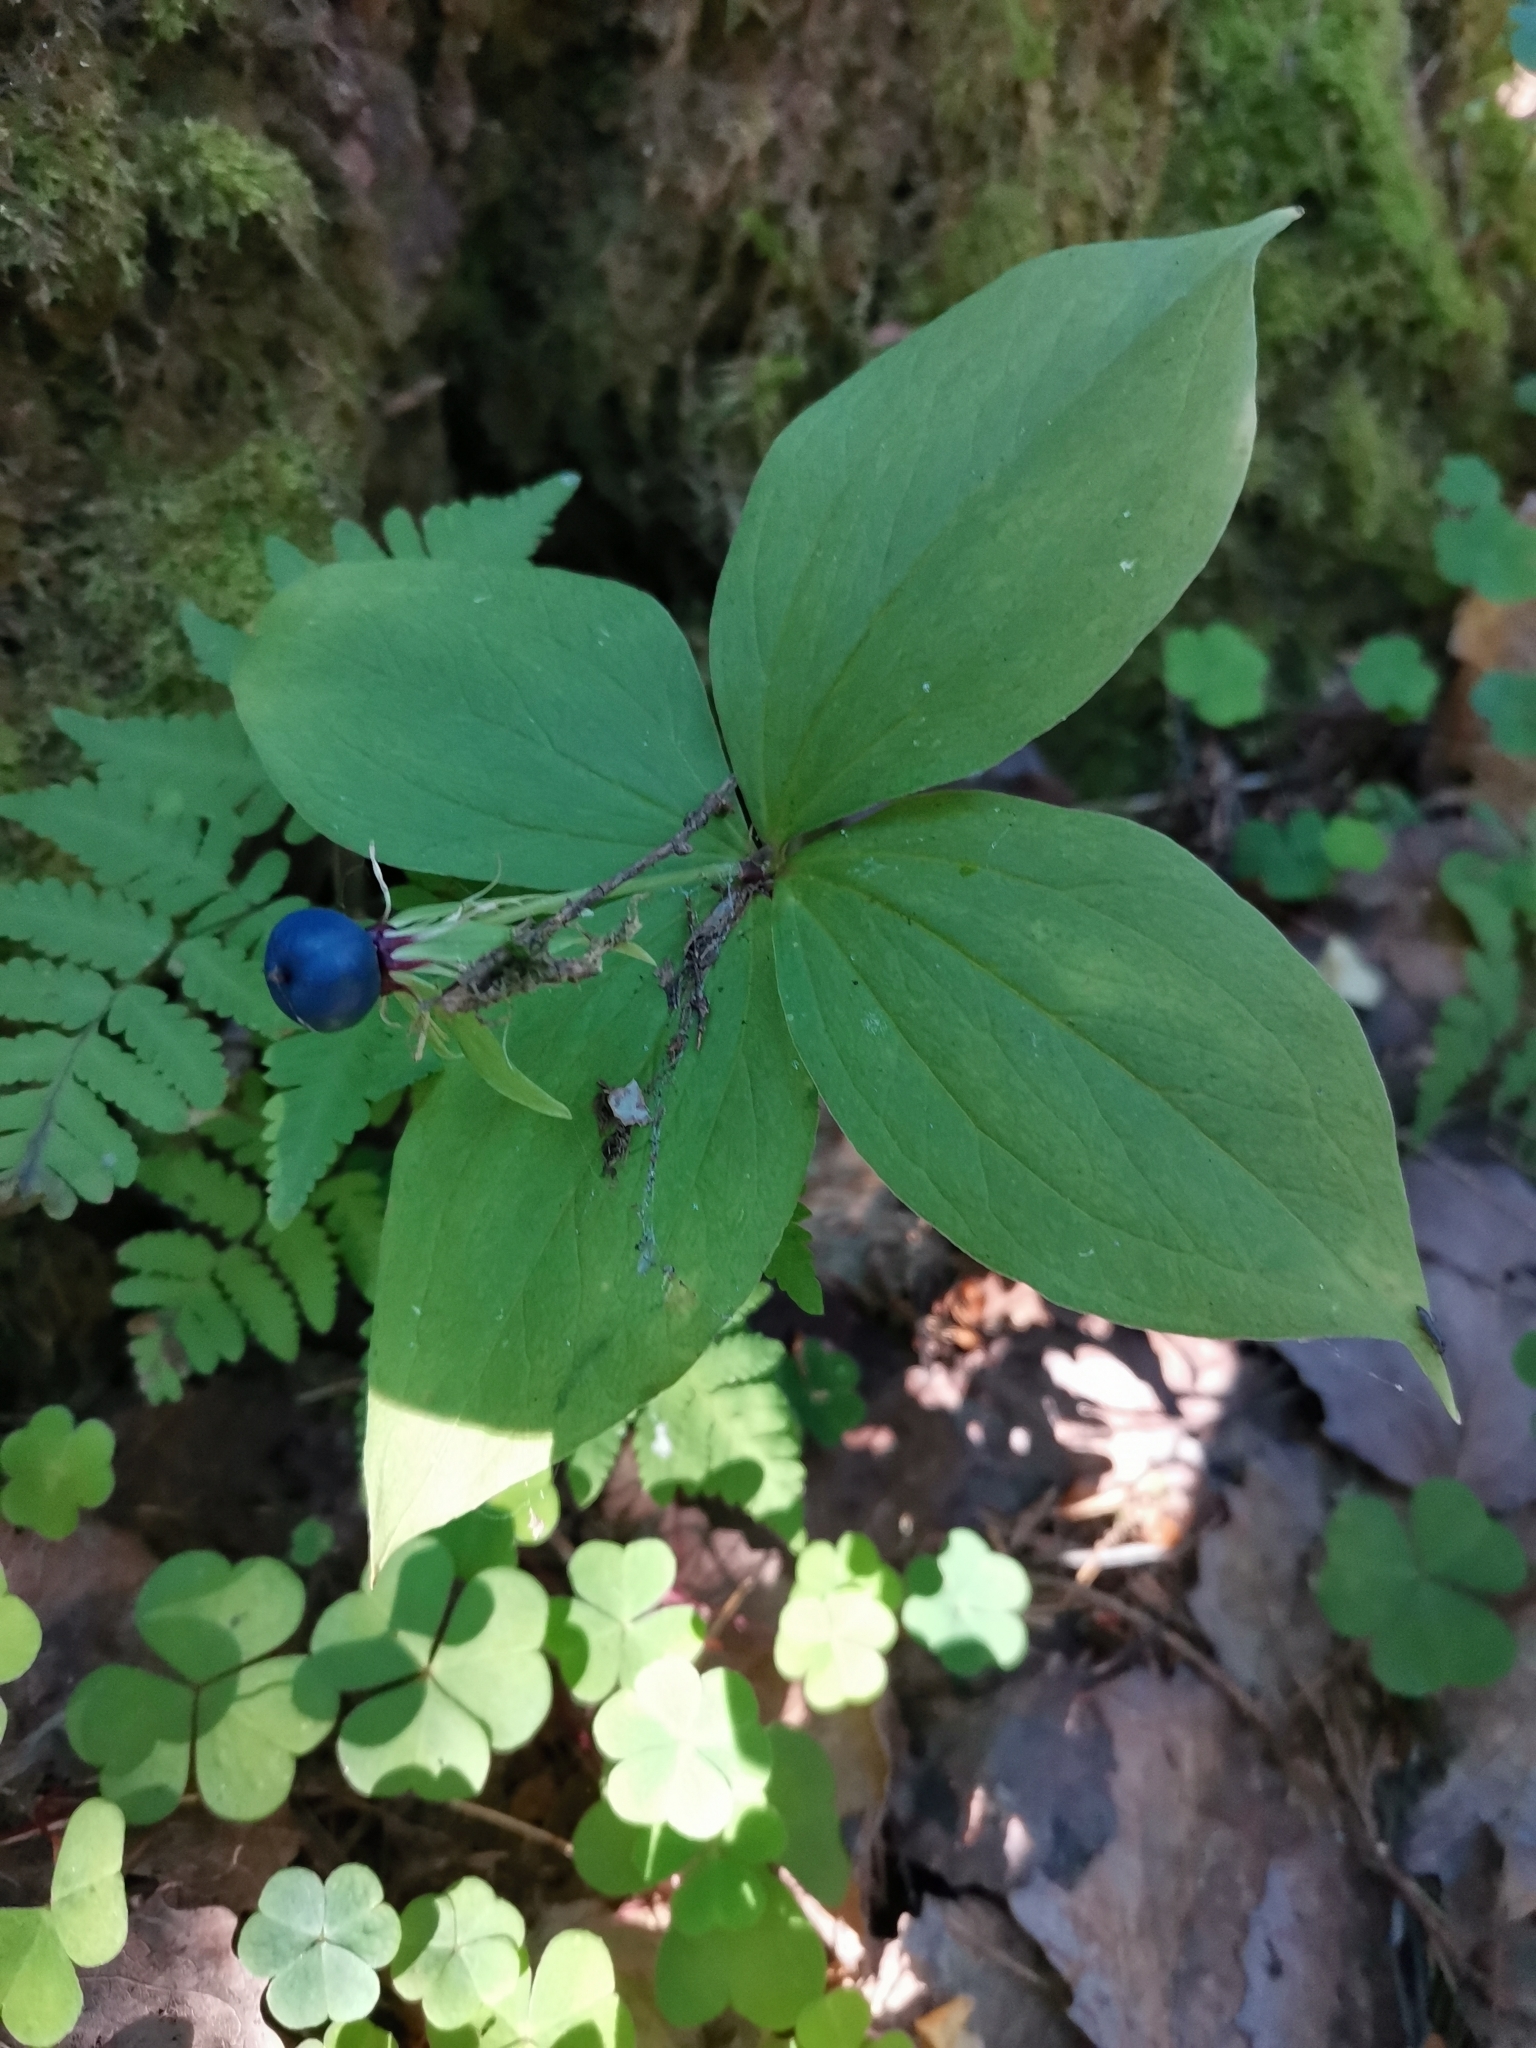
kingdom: Plantae
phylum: Tracheophyta
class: Liliopsida
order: Liliales
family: Melanthiaceae
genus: Paris
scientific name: Paris quadrifolia
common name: Herb-paris
